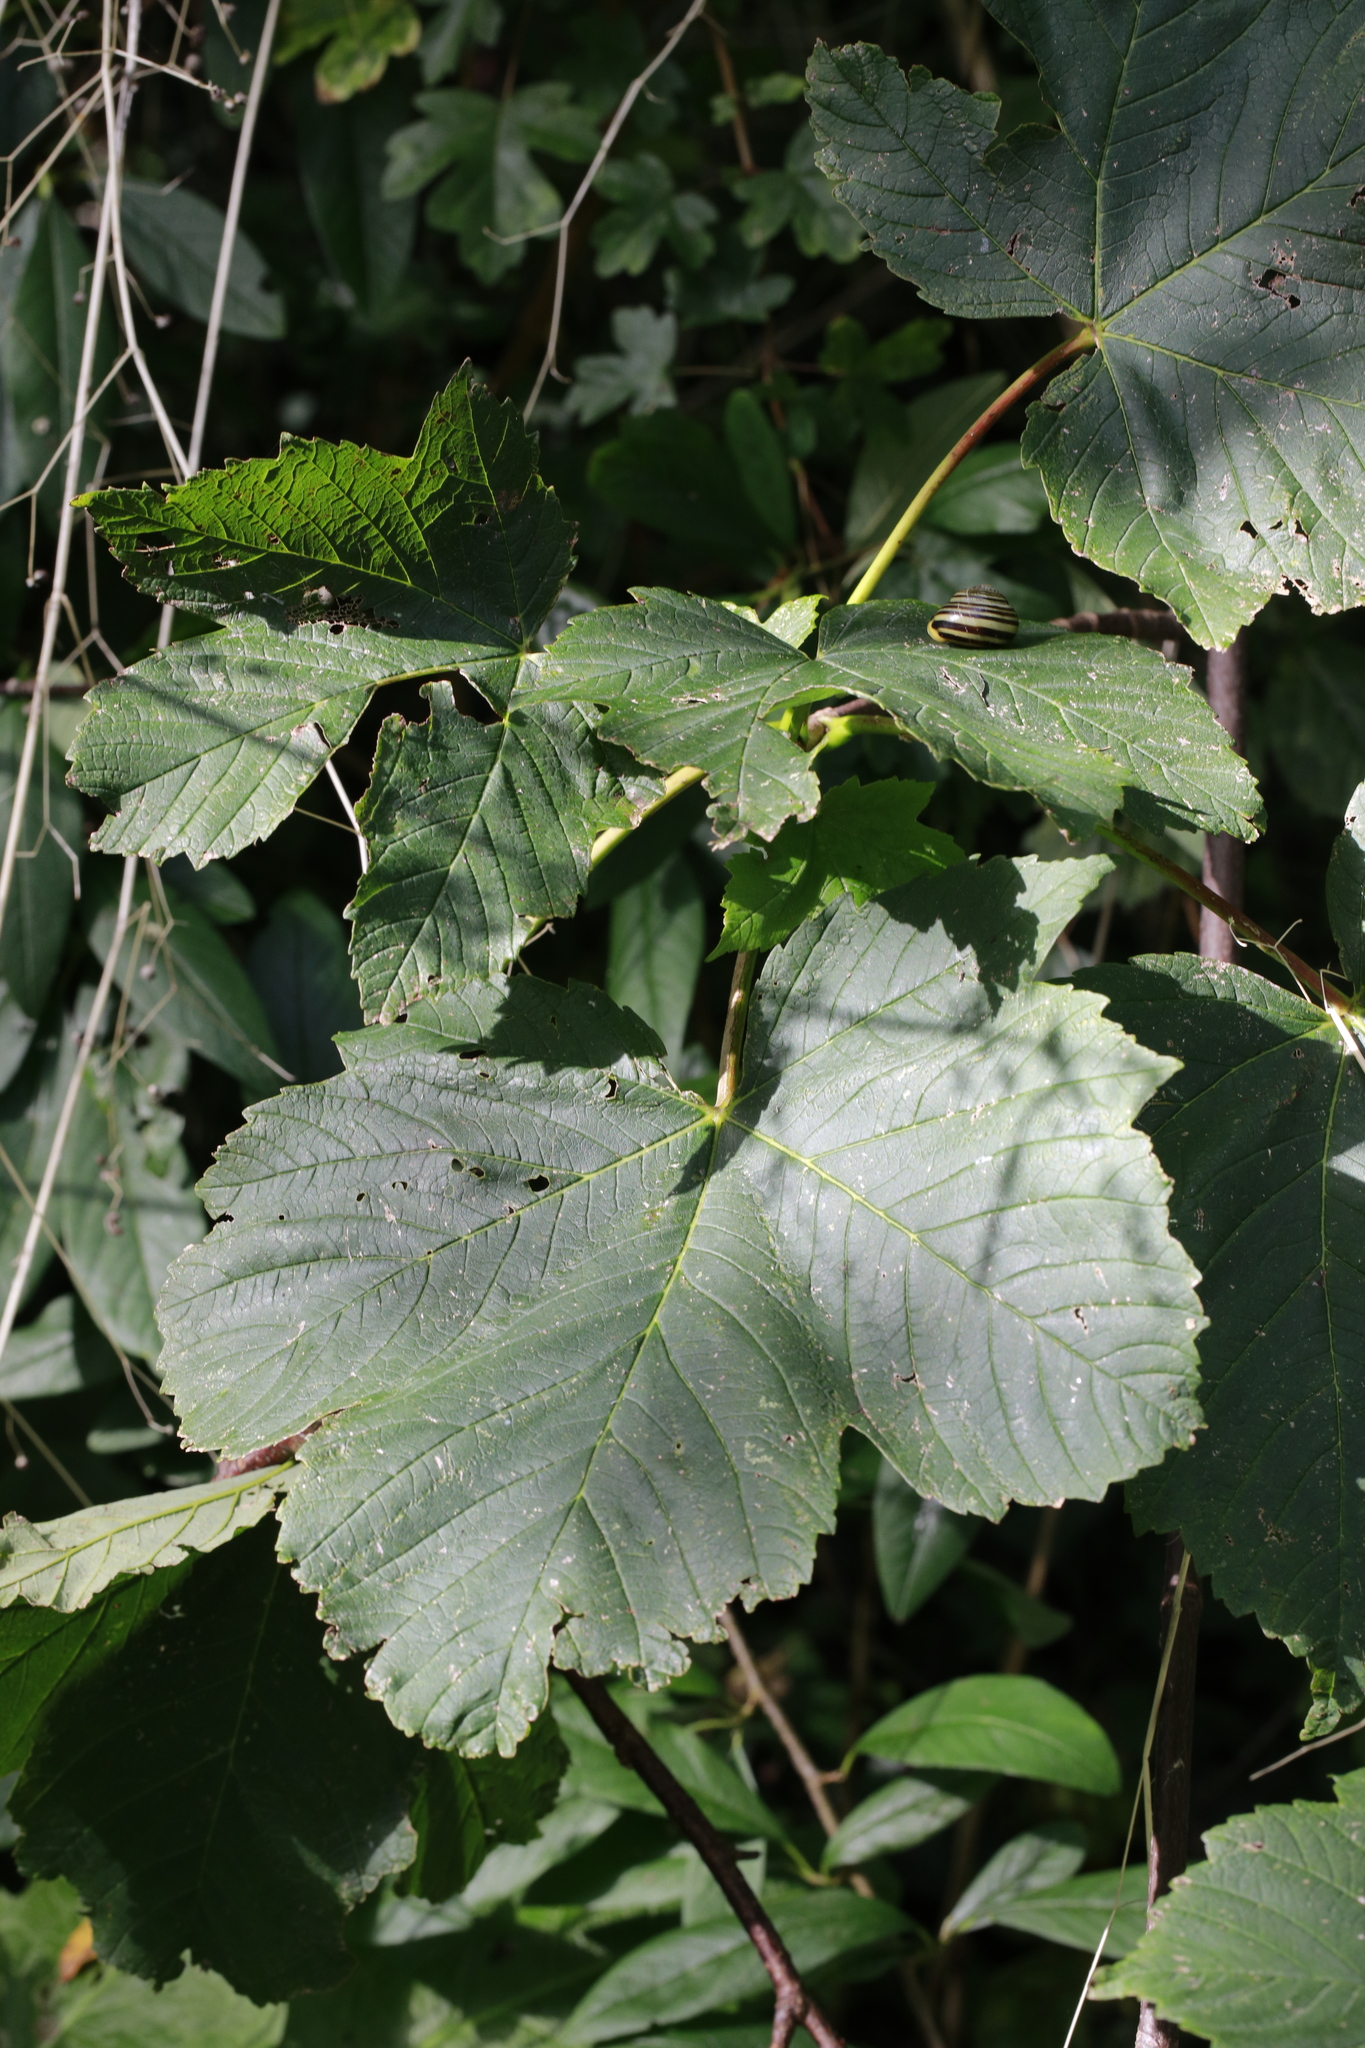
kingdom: Plantae
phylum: Tracheophyta
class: Magnoliopsida
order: Sapindales
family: Sapindaceae
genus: Acer
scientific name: Acer pseudoplatanus
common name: Sycamore
